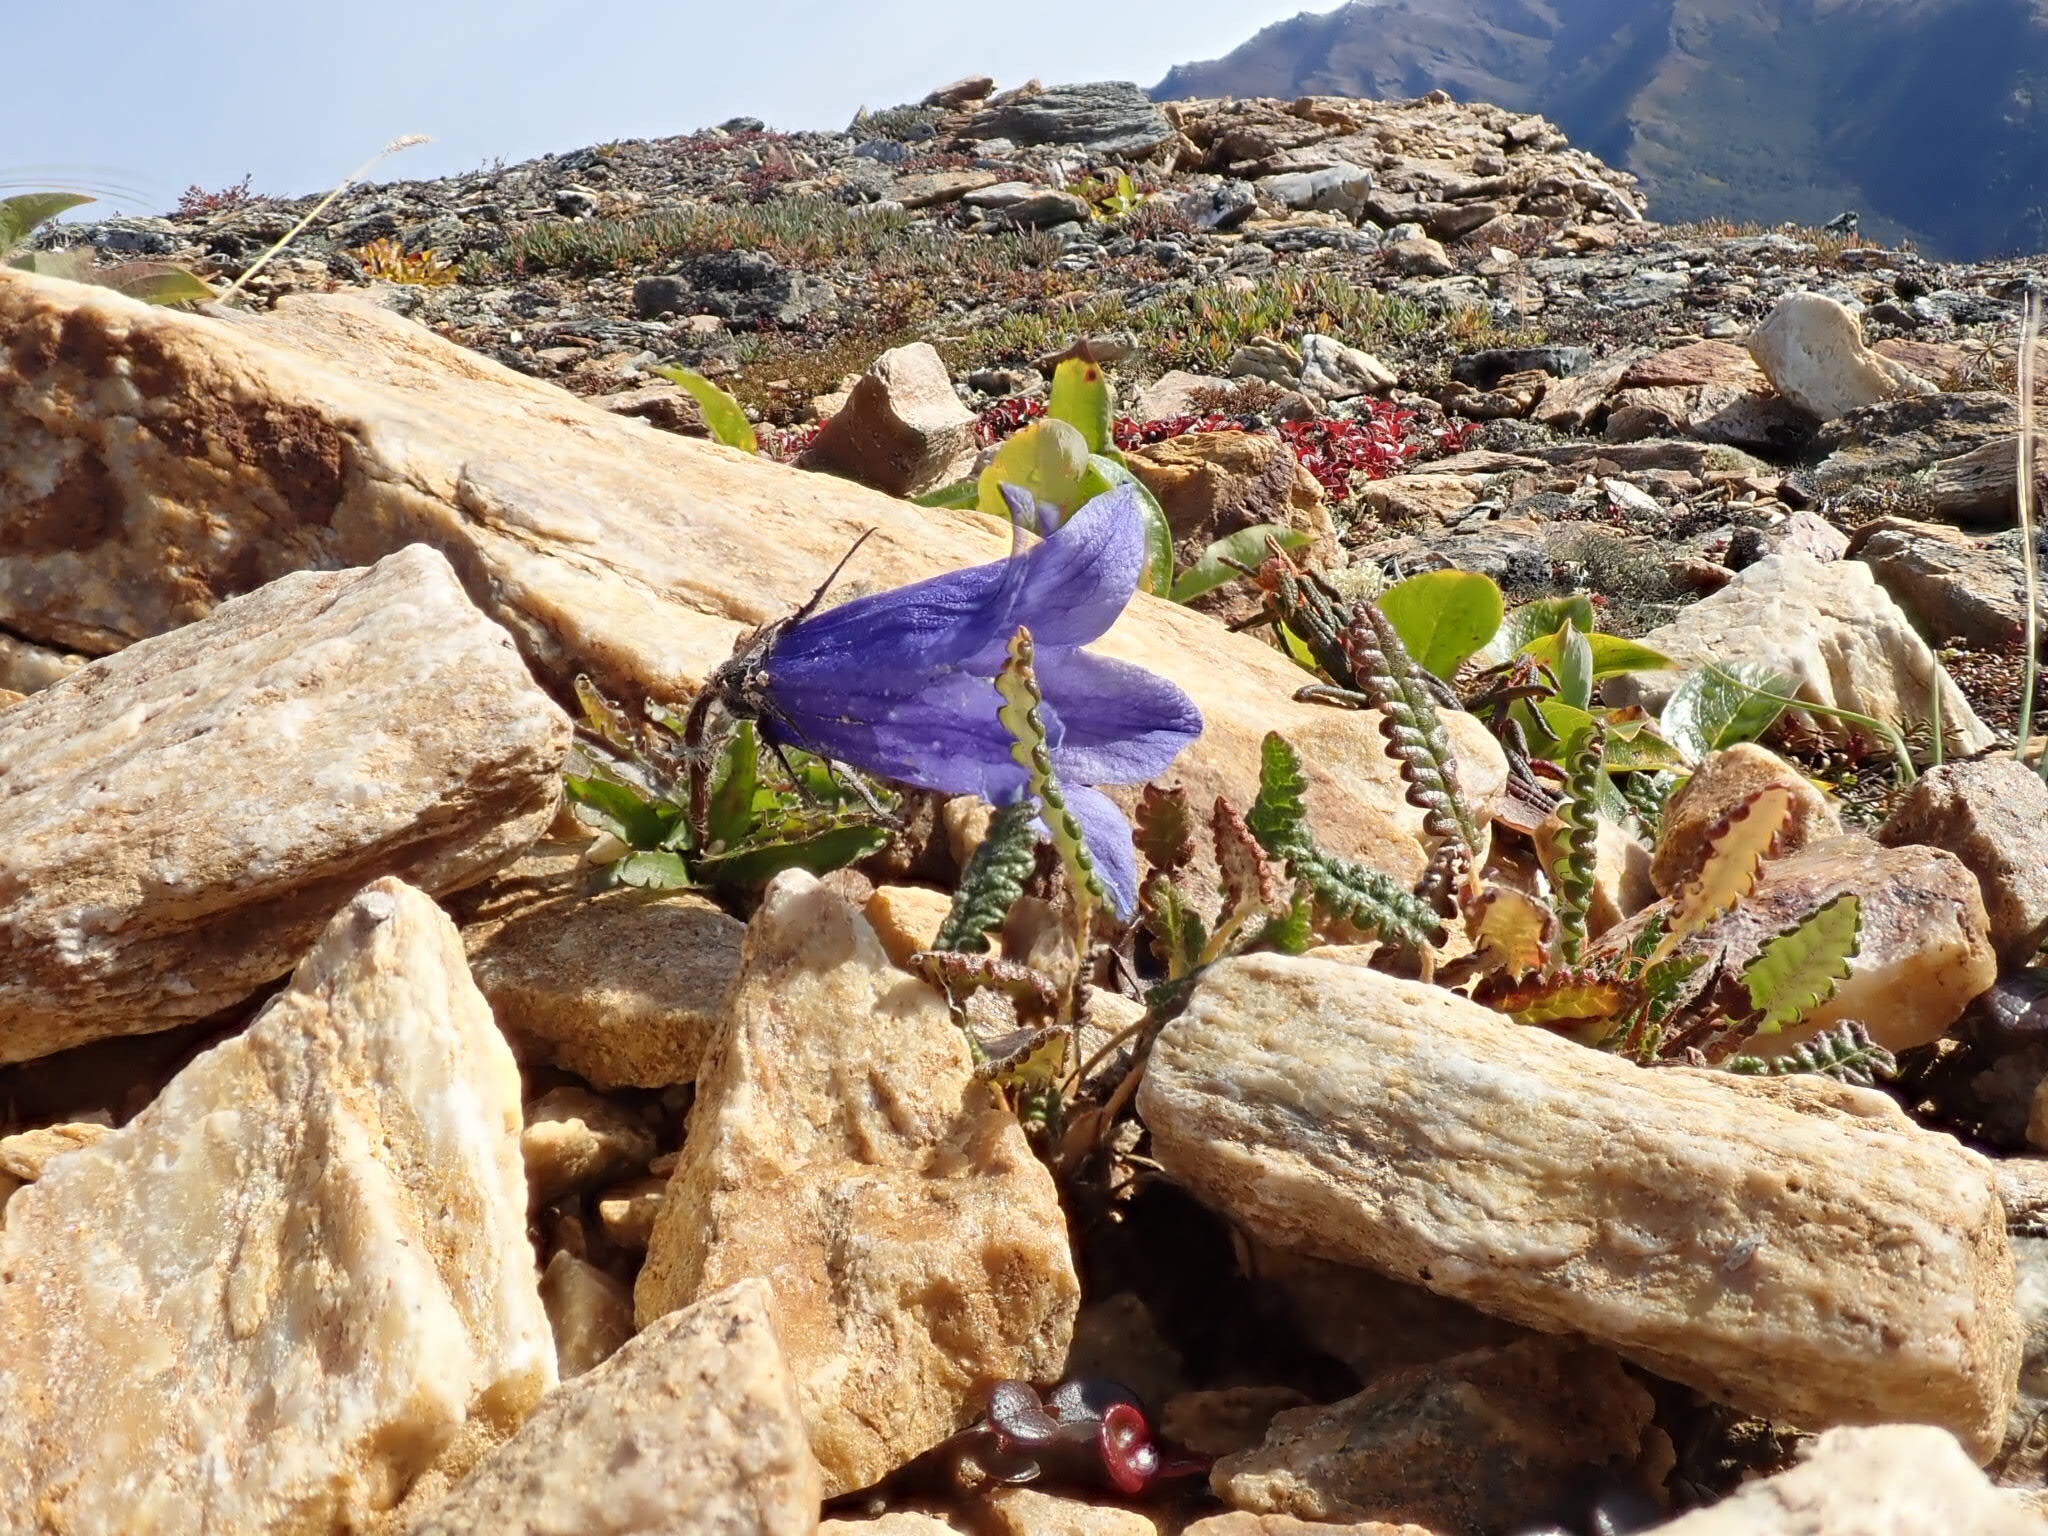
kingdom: Plantae
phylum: Tracheophyta
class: Magnoliopsida
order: Asterales
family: Campanulaceae
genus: Campanula
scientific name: Campanula lasiocarpa
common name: Mountain harebell
